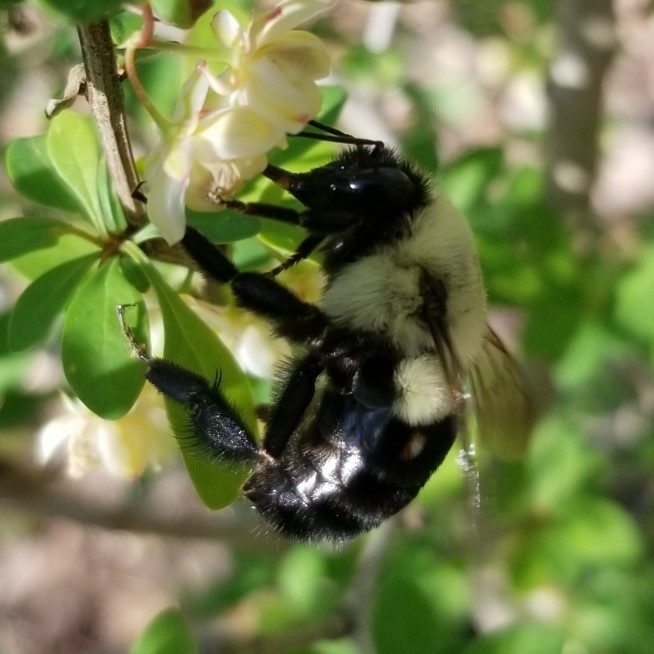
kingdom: Animalia
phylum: Arthropoda
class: Insecta
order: Hymenoptera
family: Apidae
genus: Bombus
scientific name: Bombus impatiens
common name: Common eastern bumble bee
